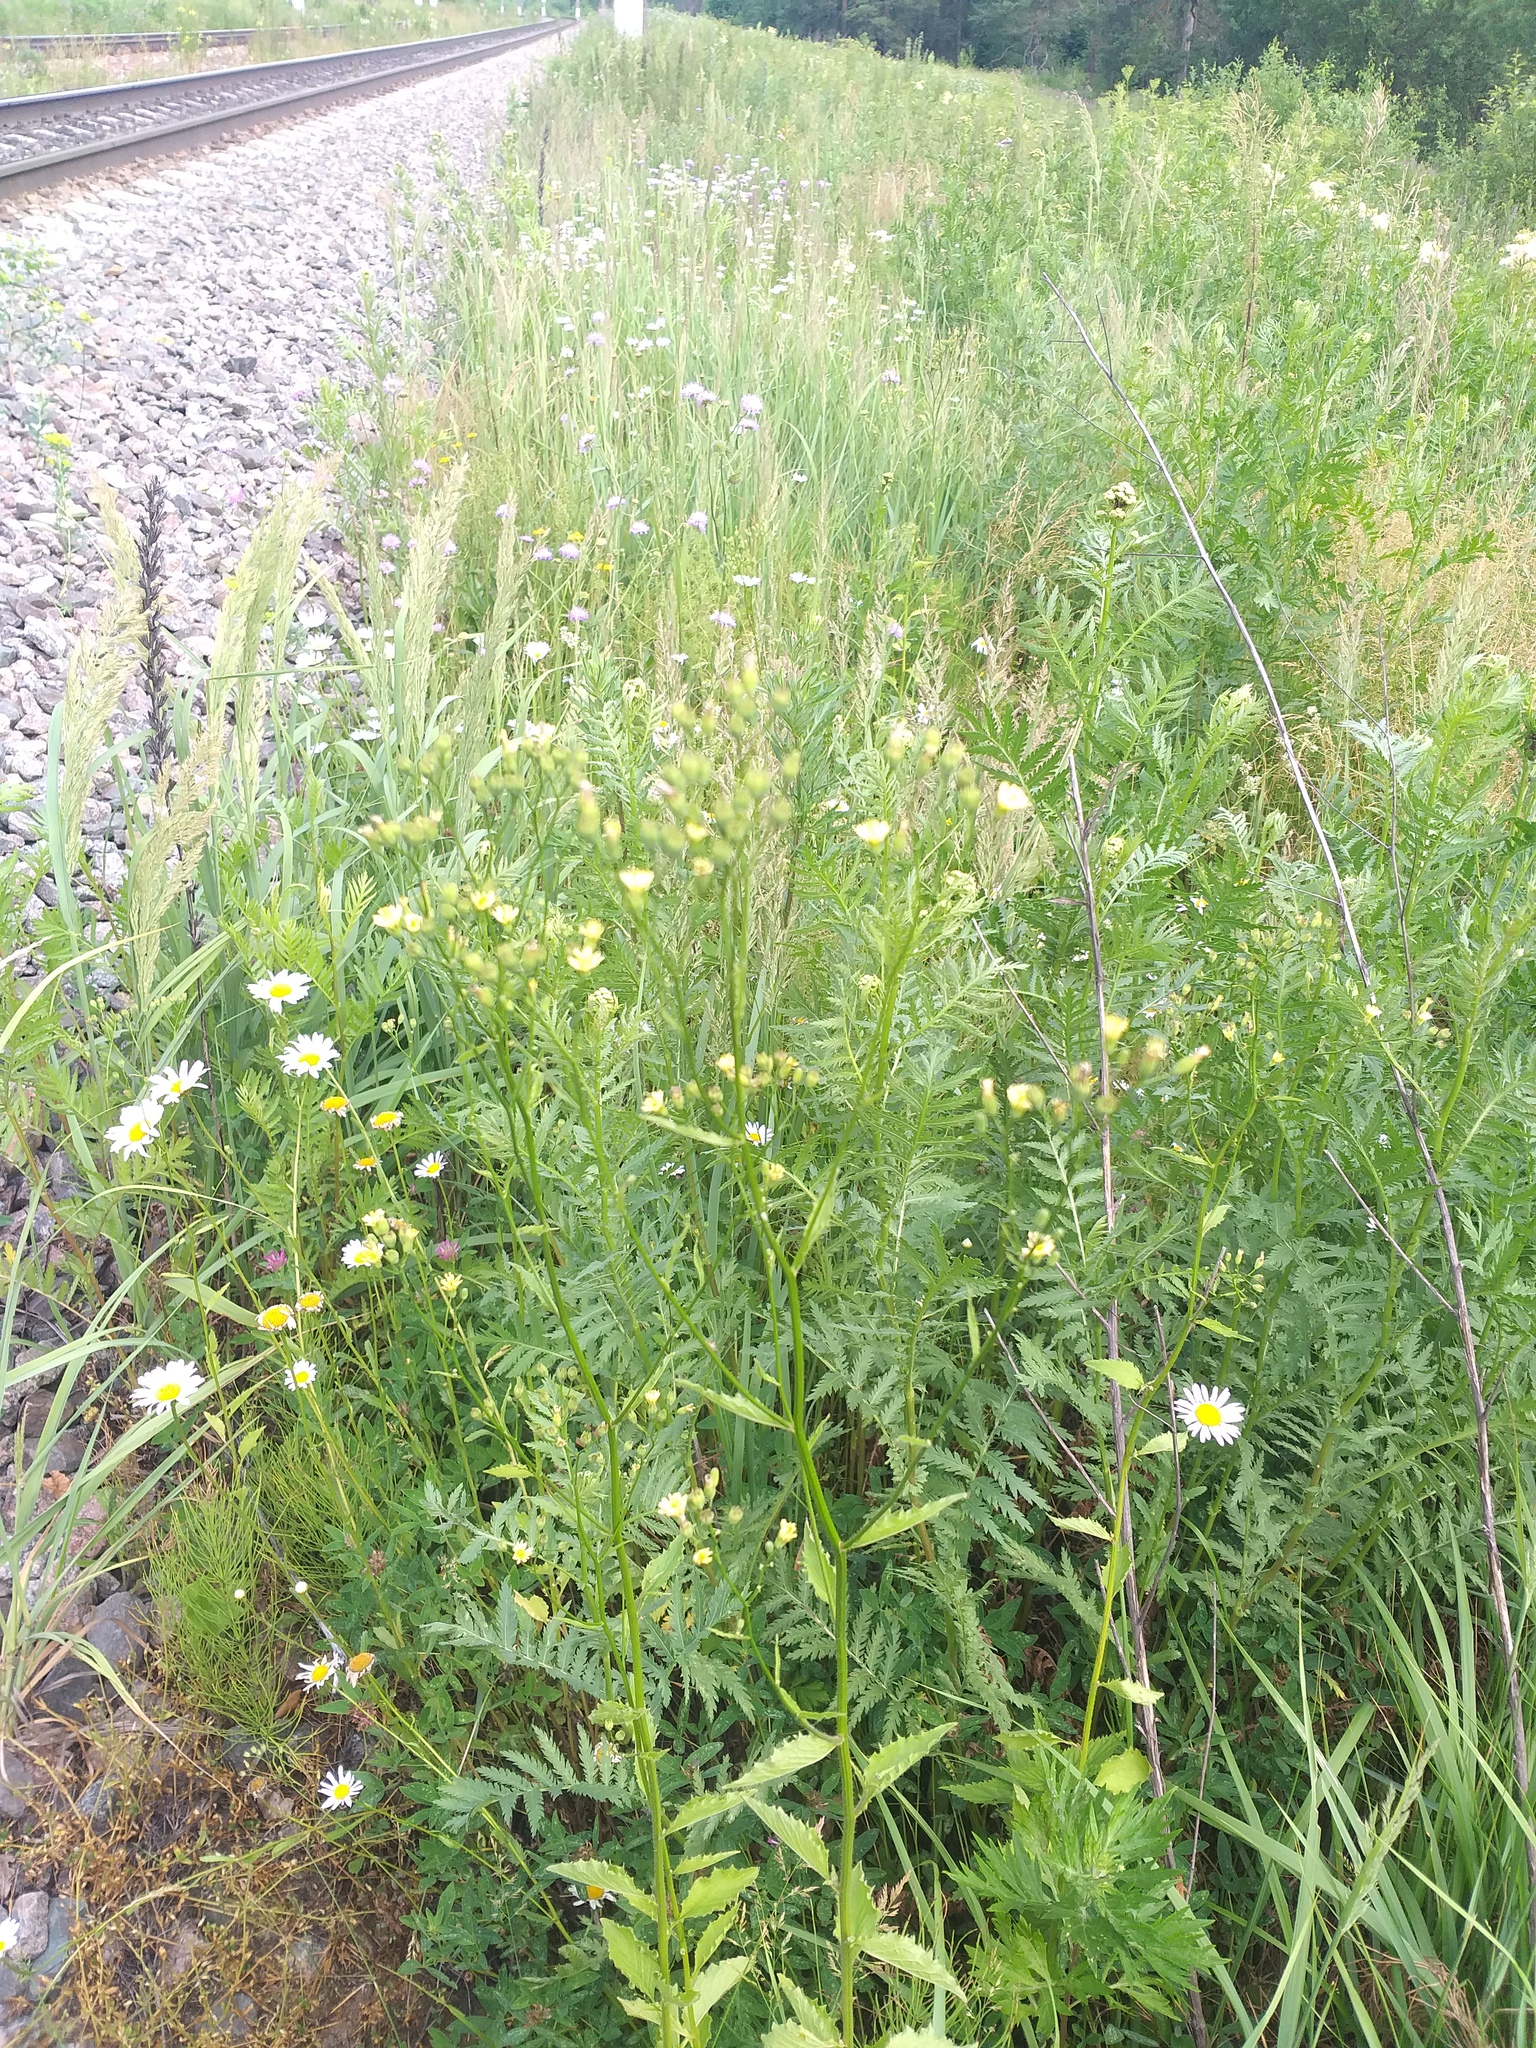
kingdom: Plantae
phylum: Tracheophyta
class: Magnoliopsida
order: Asterales
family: Asteraceae
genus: Lapsana
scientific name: Lapsana communis
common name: Nipplewort
